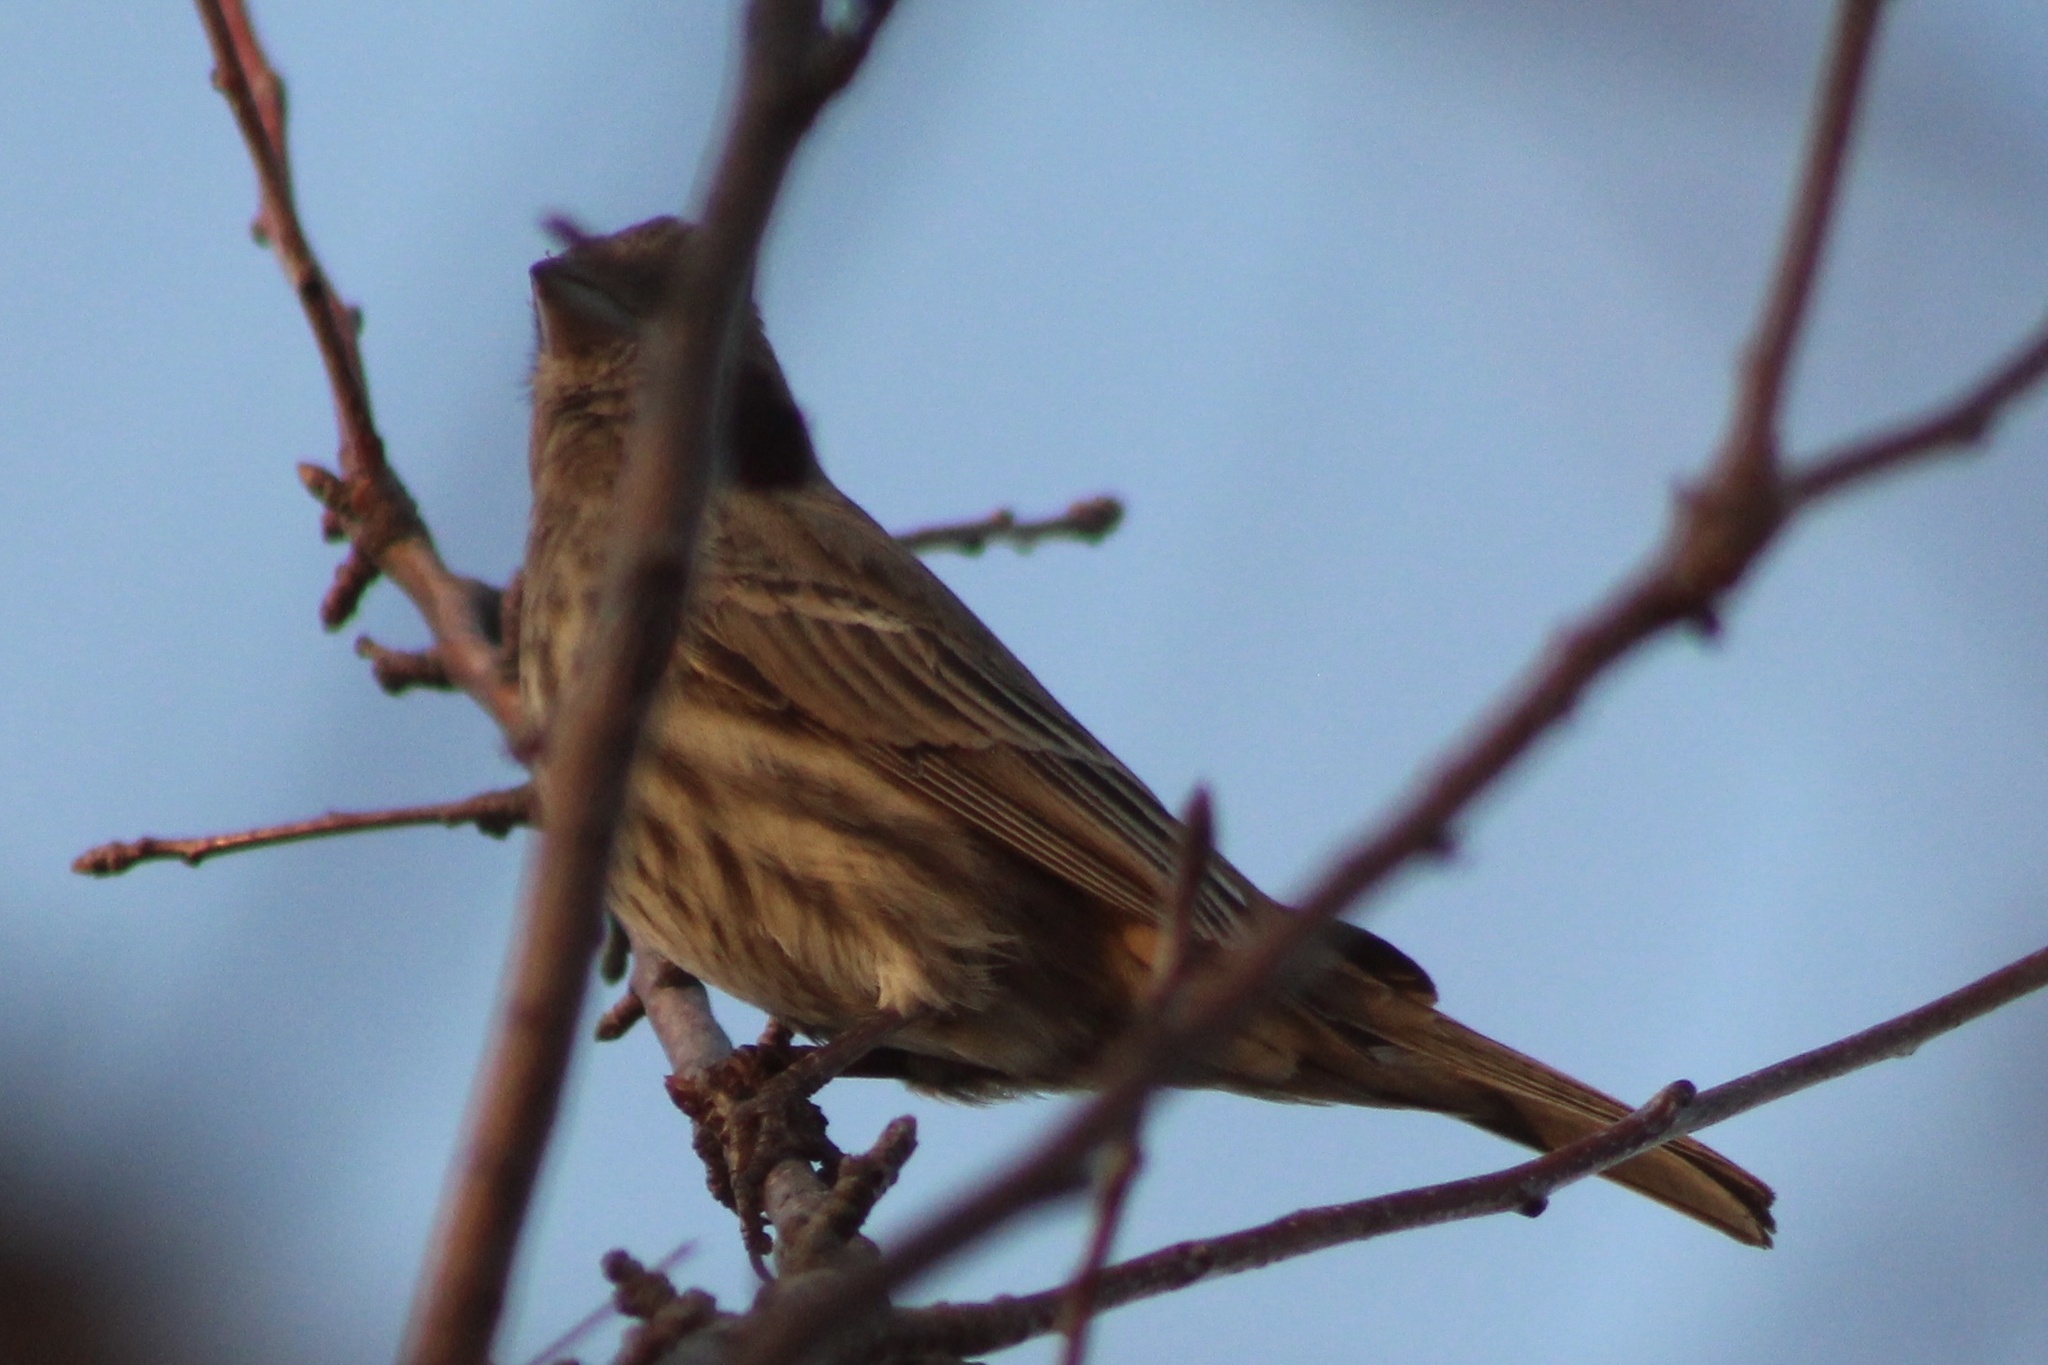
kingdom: Animalia
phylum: Chordata
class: Aves
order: Passeriformes
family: Fringillidae
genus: Haemorhous
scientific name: Haemorhous mexicanus
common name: House finch
